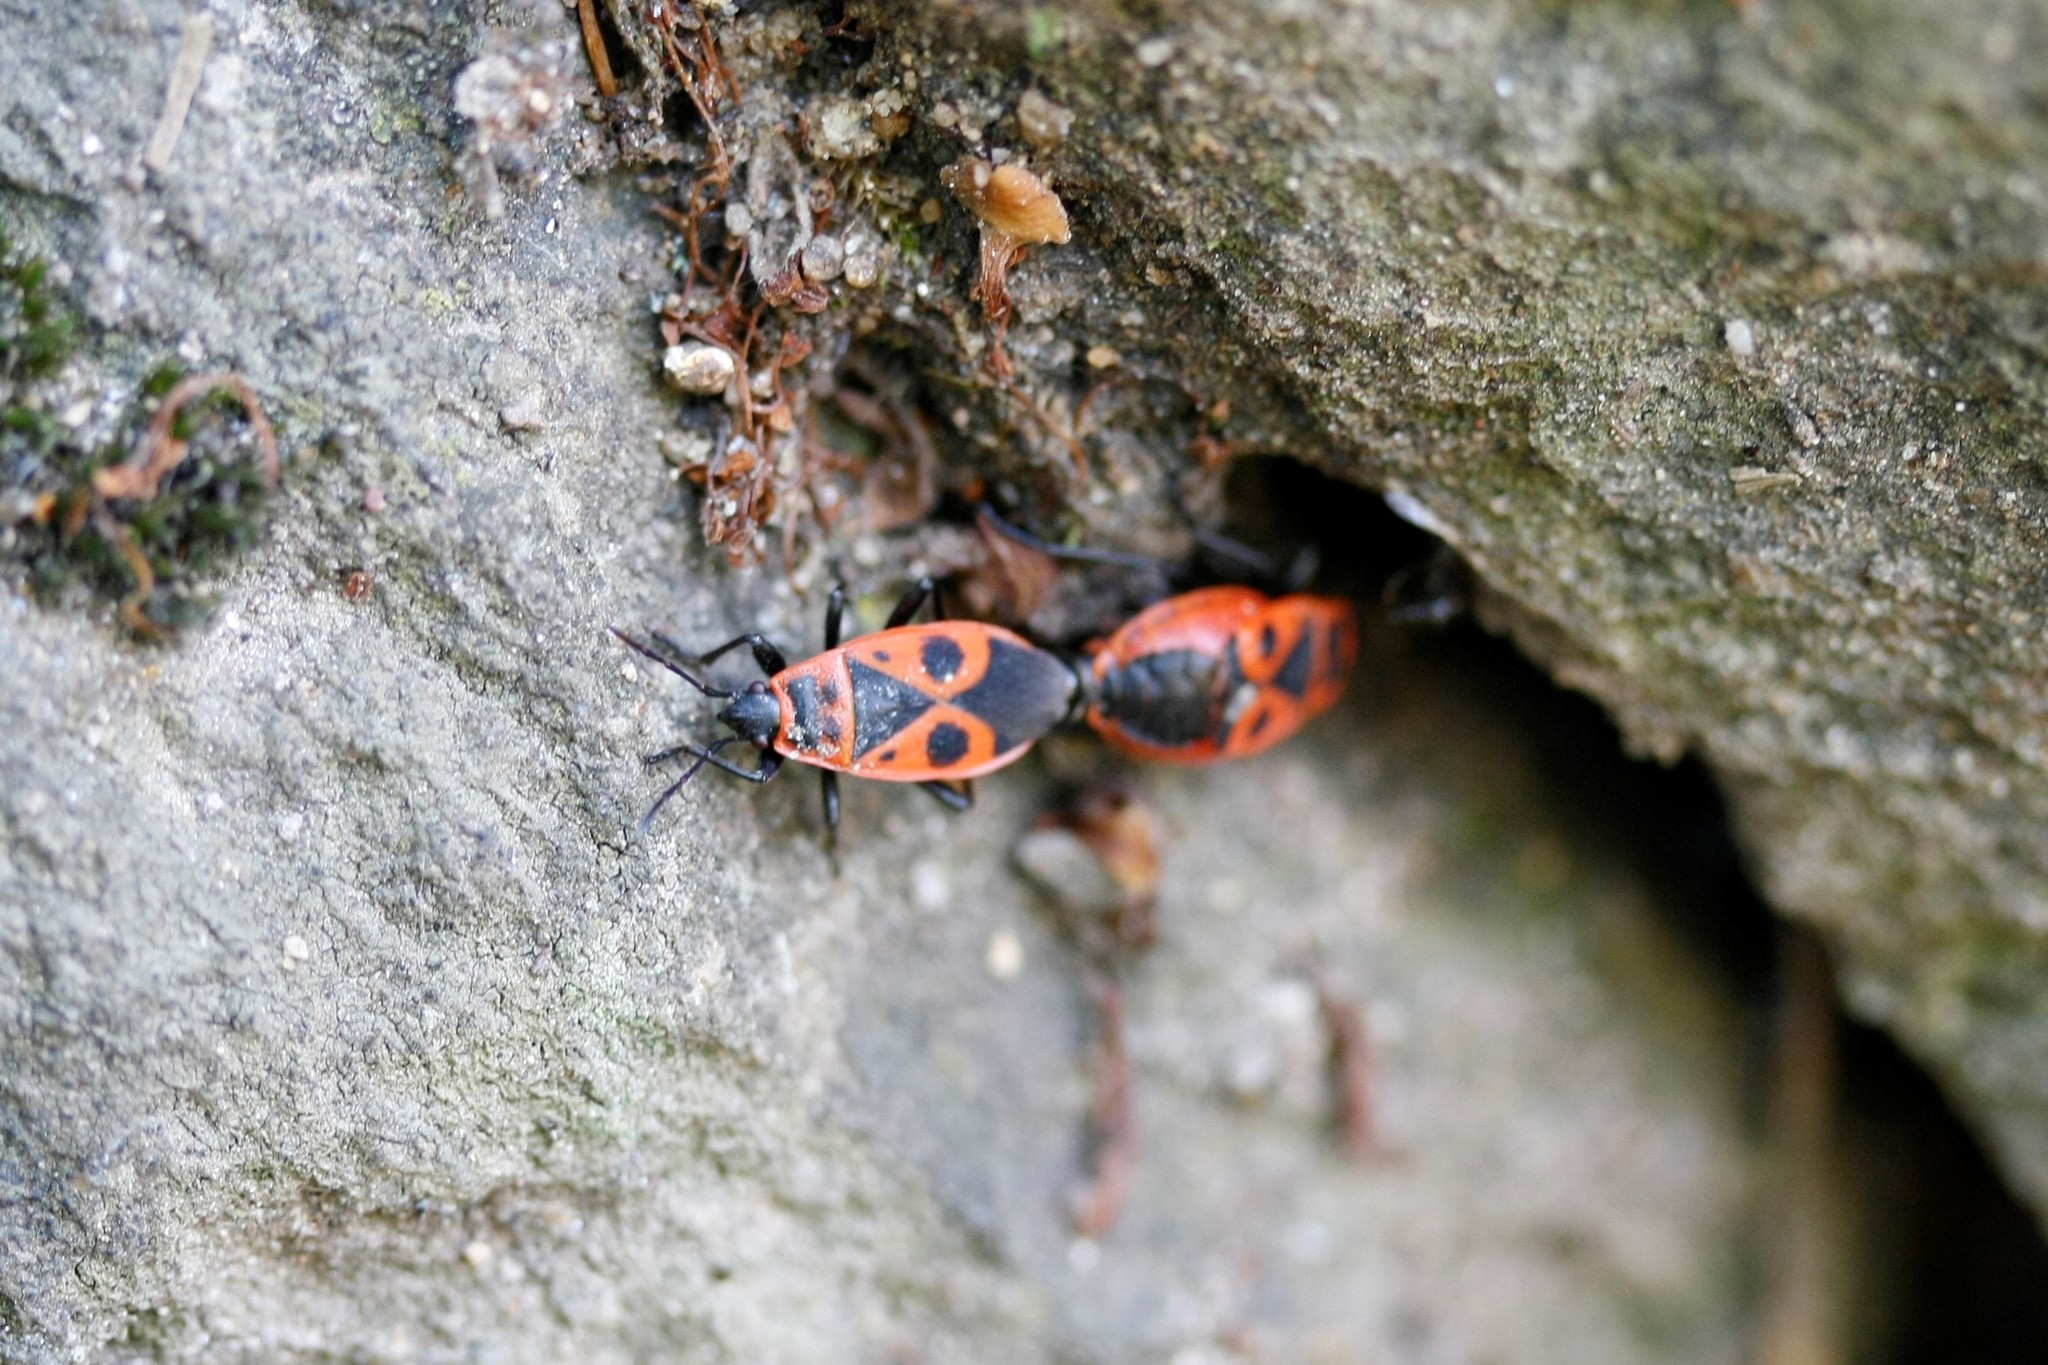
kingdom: Animalia
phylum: Arthropoda
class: Insecta
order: Hemiptera
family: Pyrrhocoridae
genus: Pyrrhocoris
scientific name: Pyrrhocoris apterus
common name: Firebug
